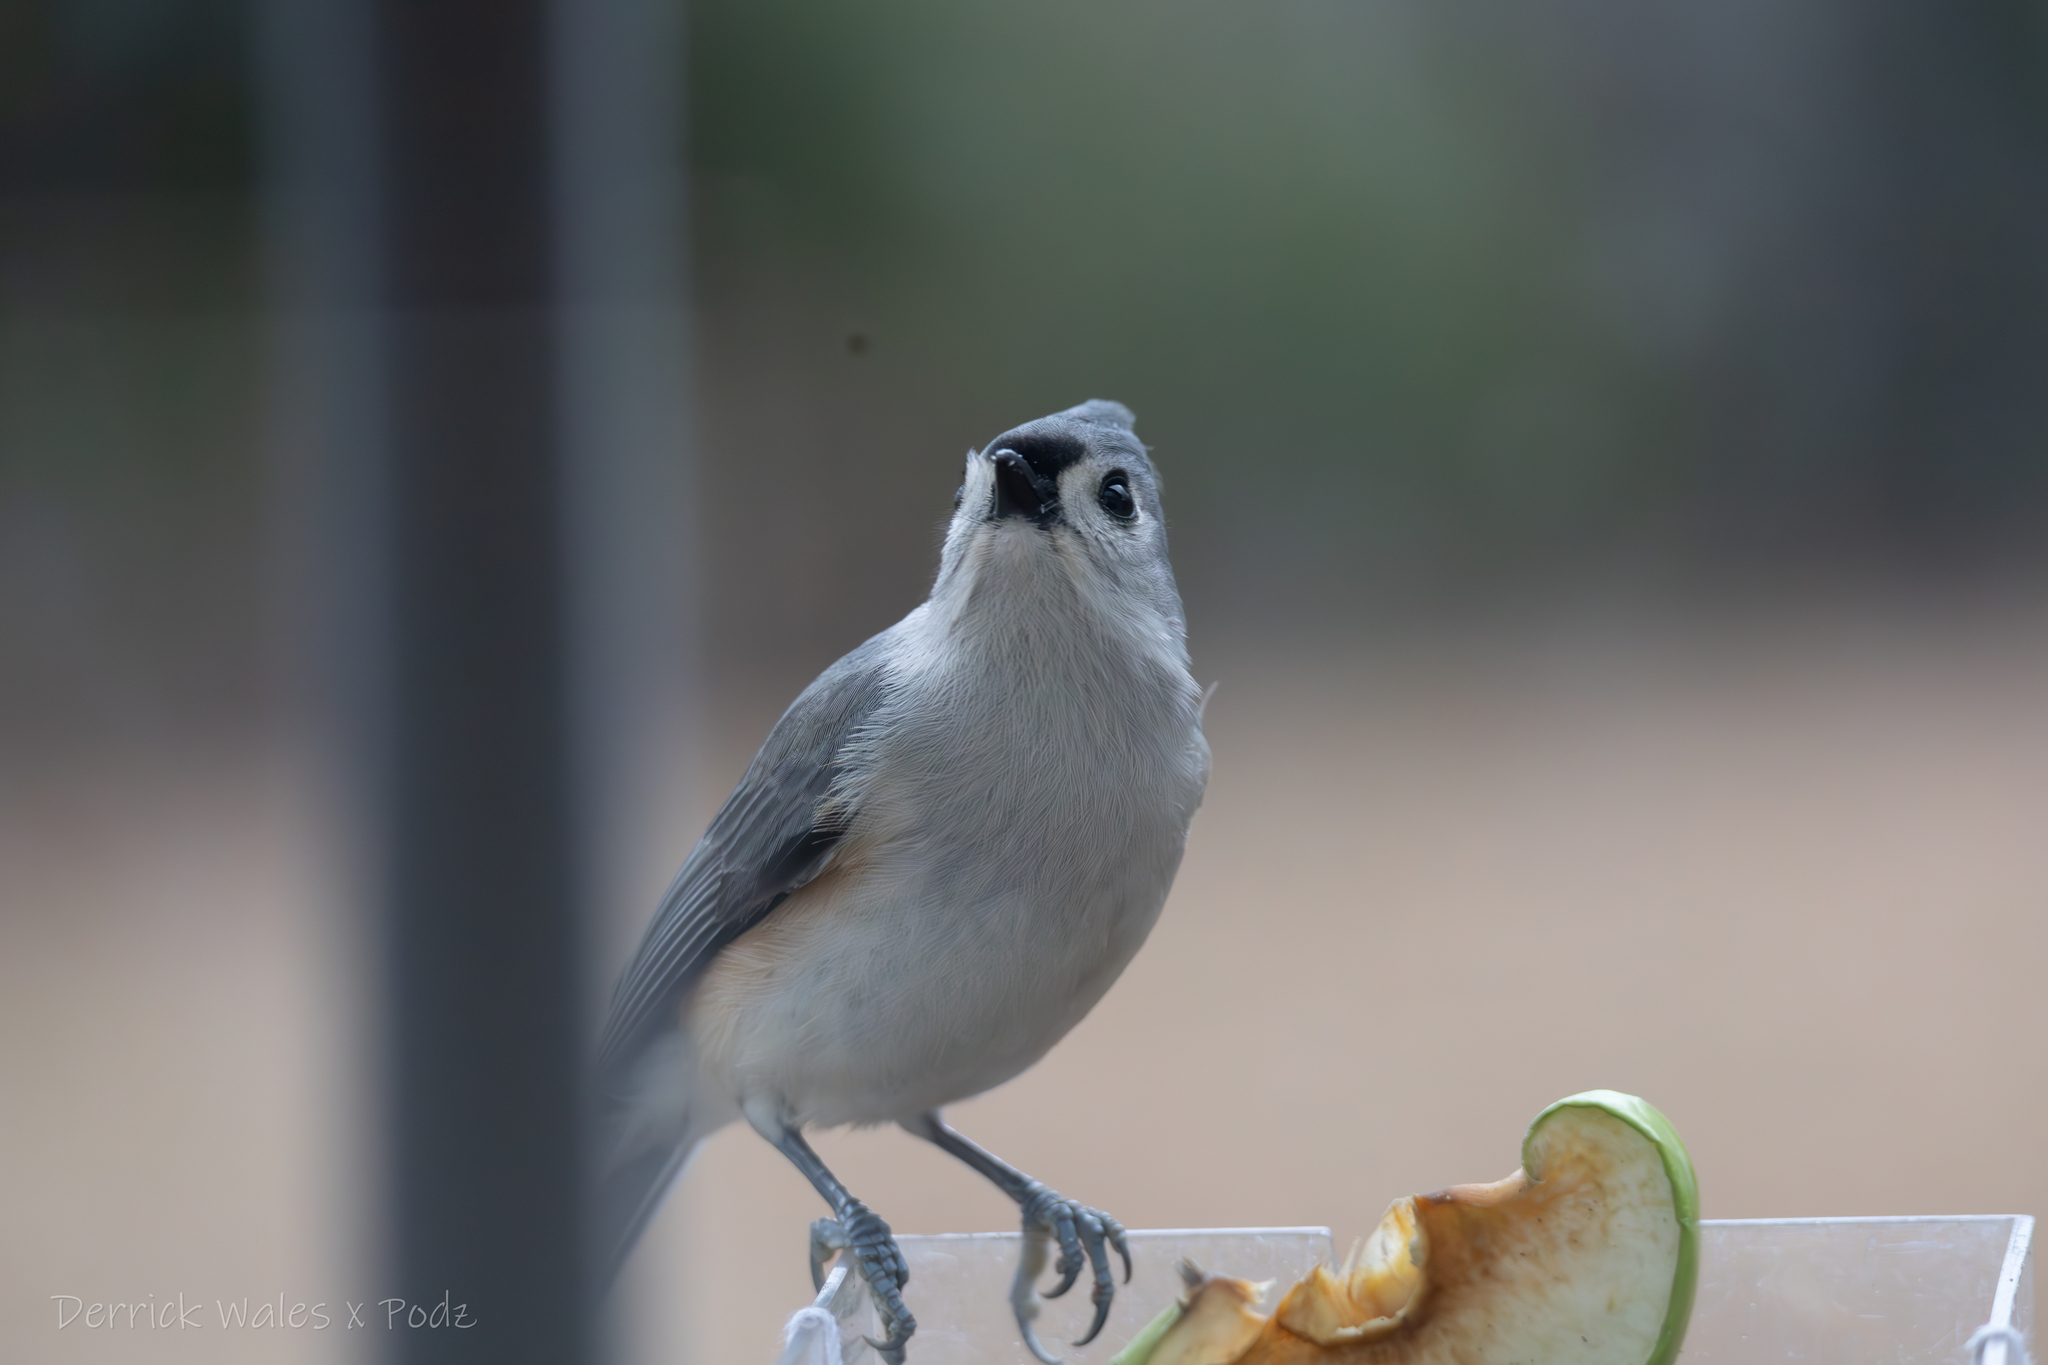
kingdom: Animalia
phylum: Chordata
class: Aves
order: Passeriformes
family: Paridae
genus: Baeolophus
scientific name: Baeolophus bicolor
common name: Tufted titmouse
